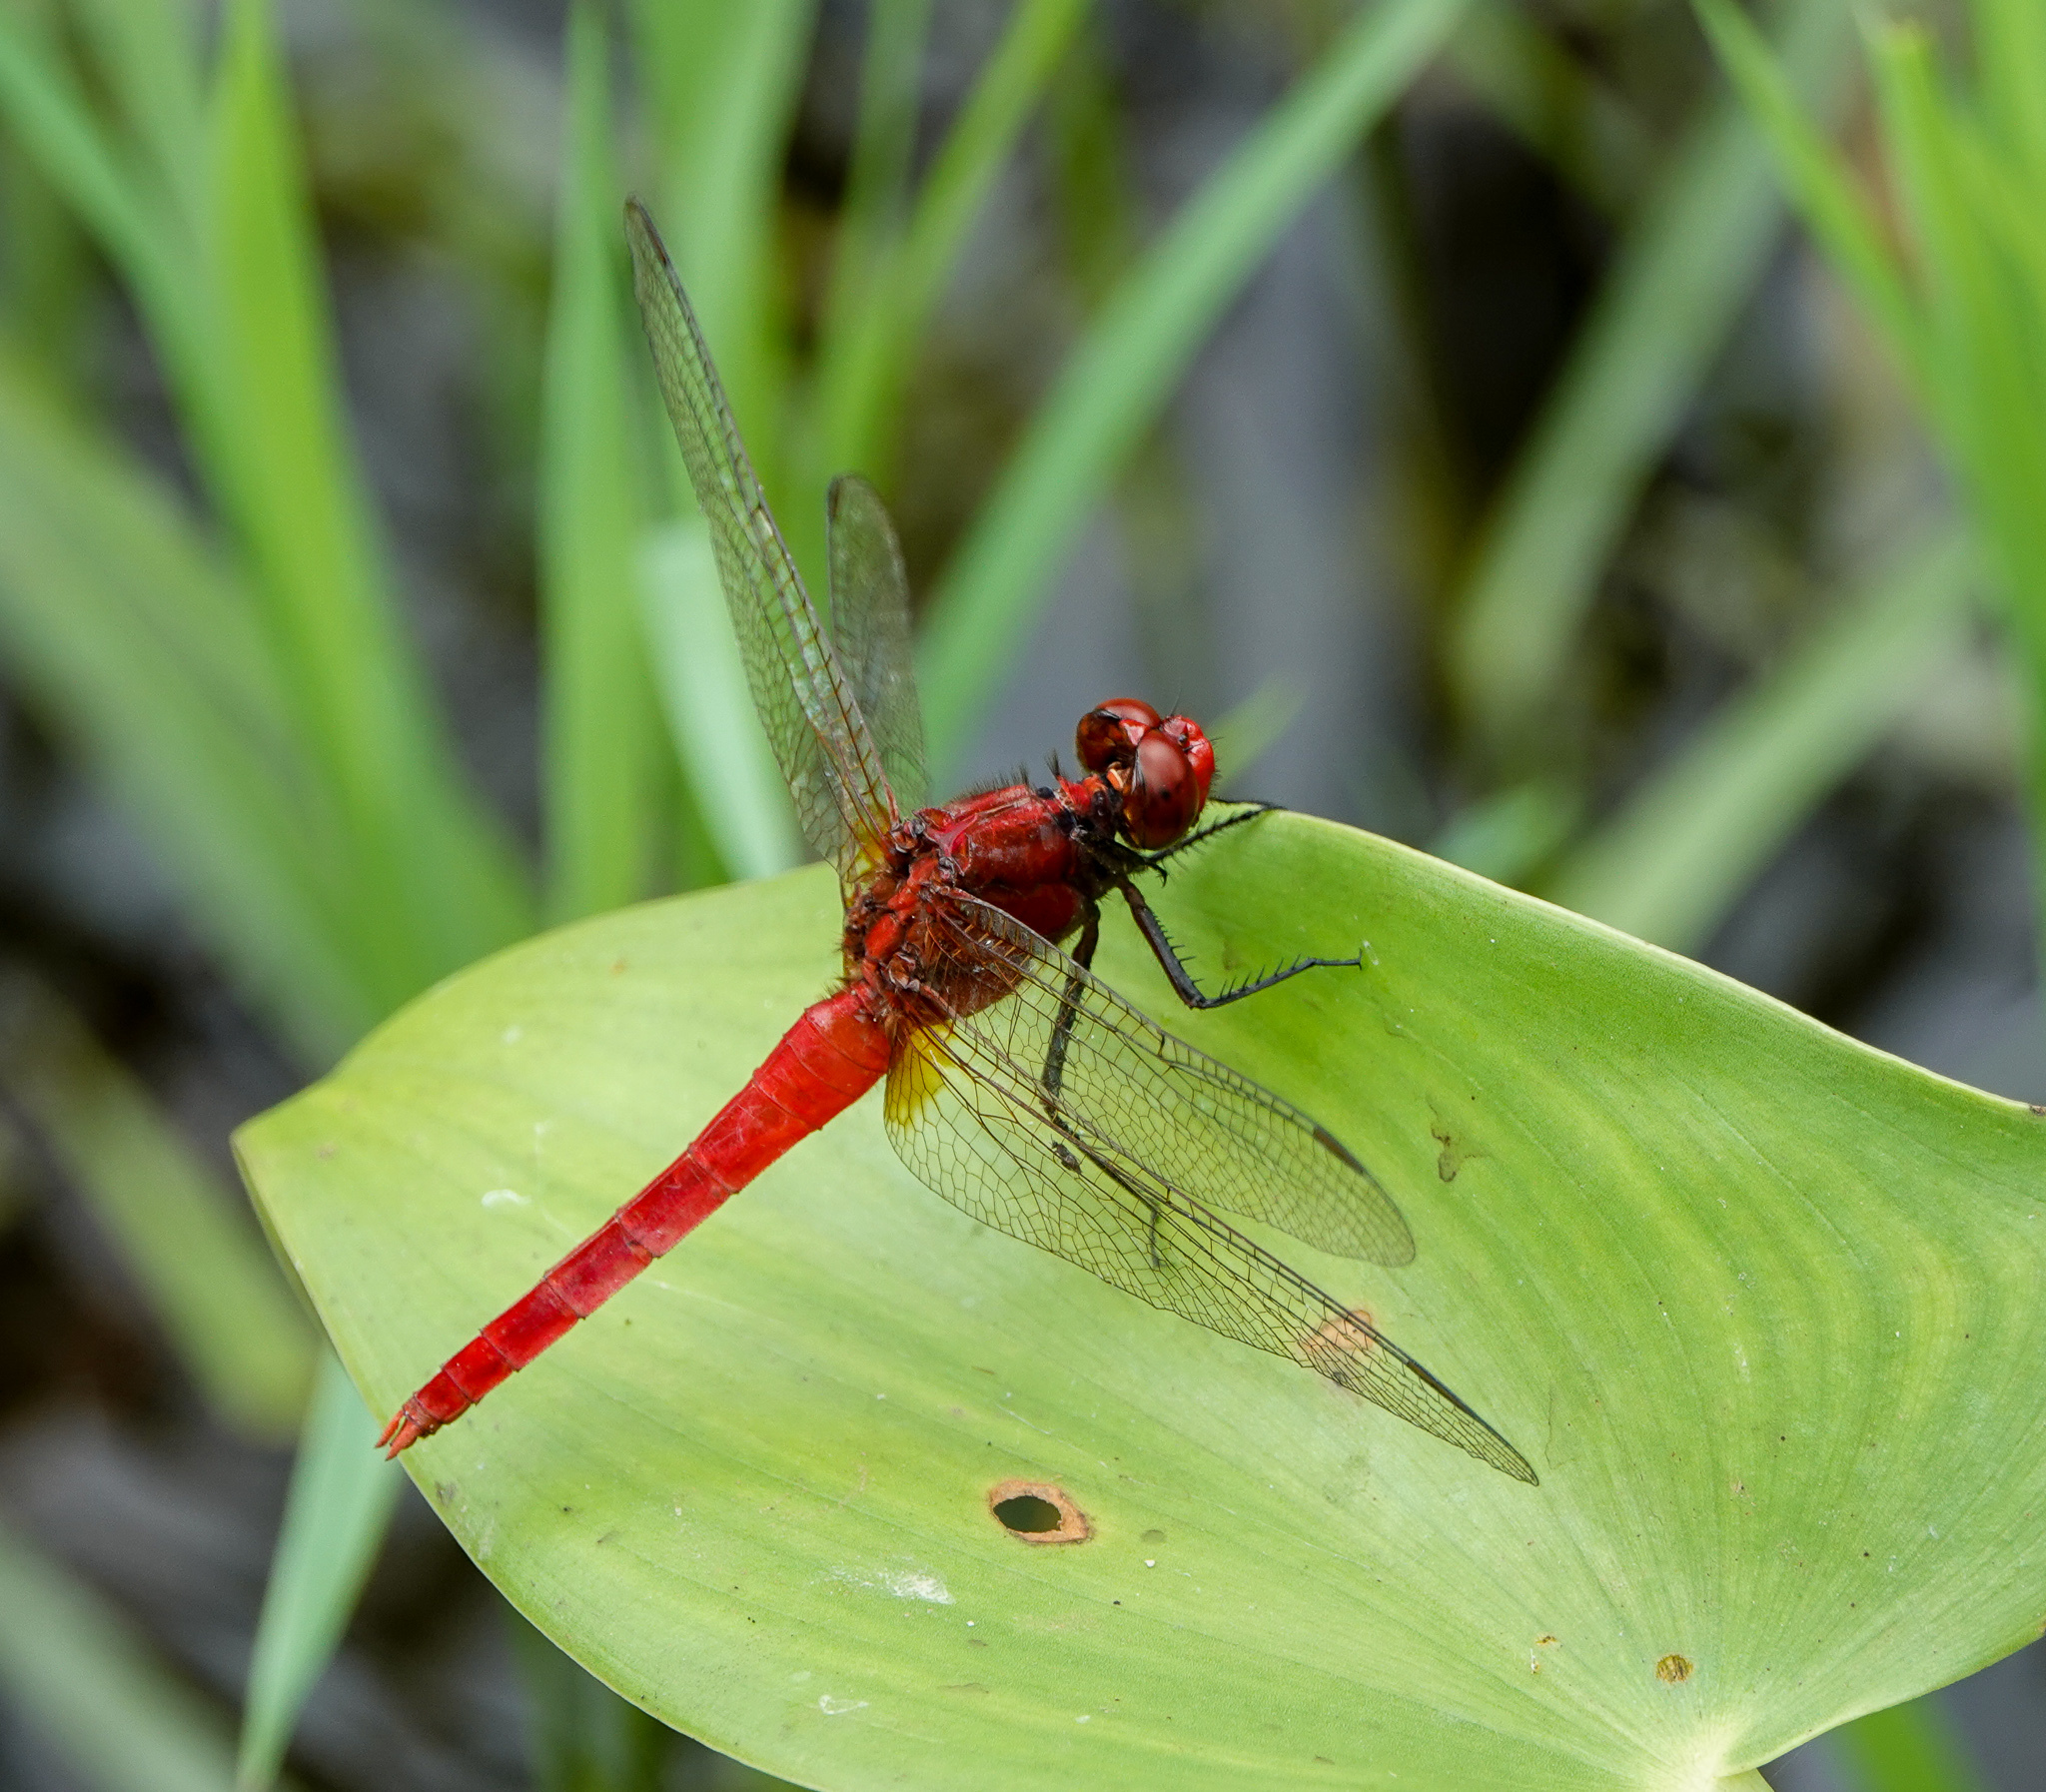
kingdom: Animalia
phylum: Arthropoda
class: Insecta
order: Odonata
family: Libellulidae
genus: Rhodothemis
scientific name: Rhodothemis rufa
